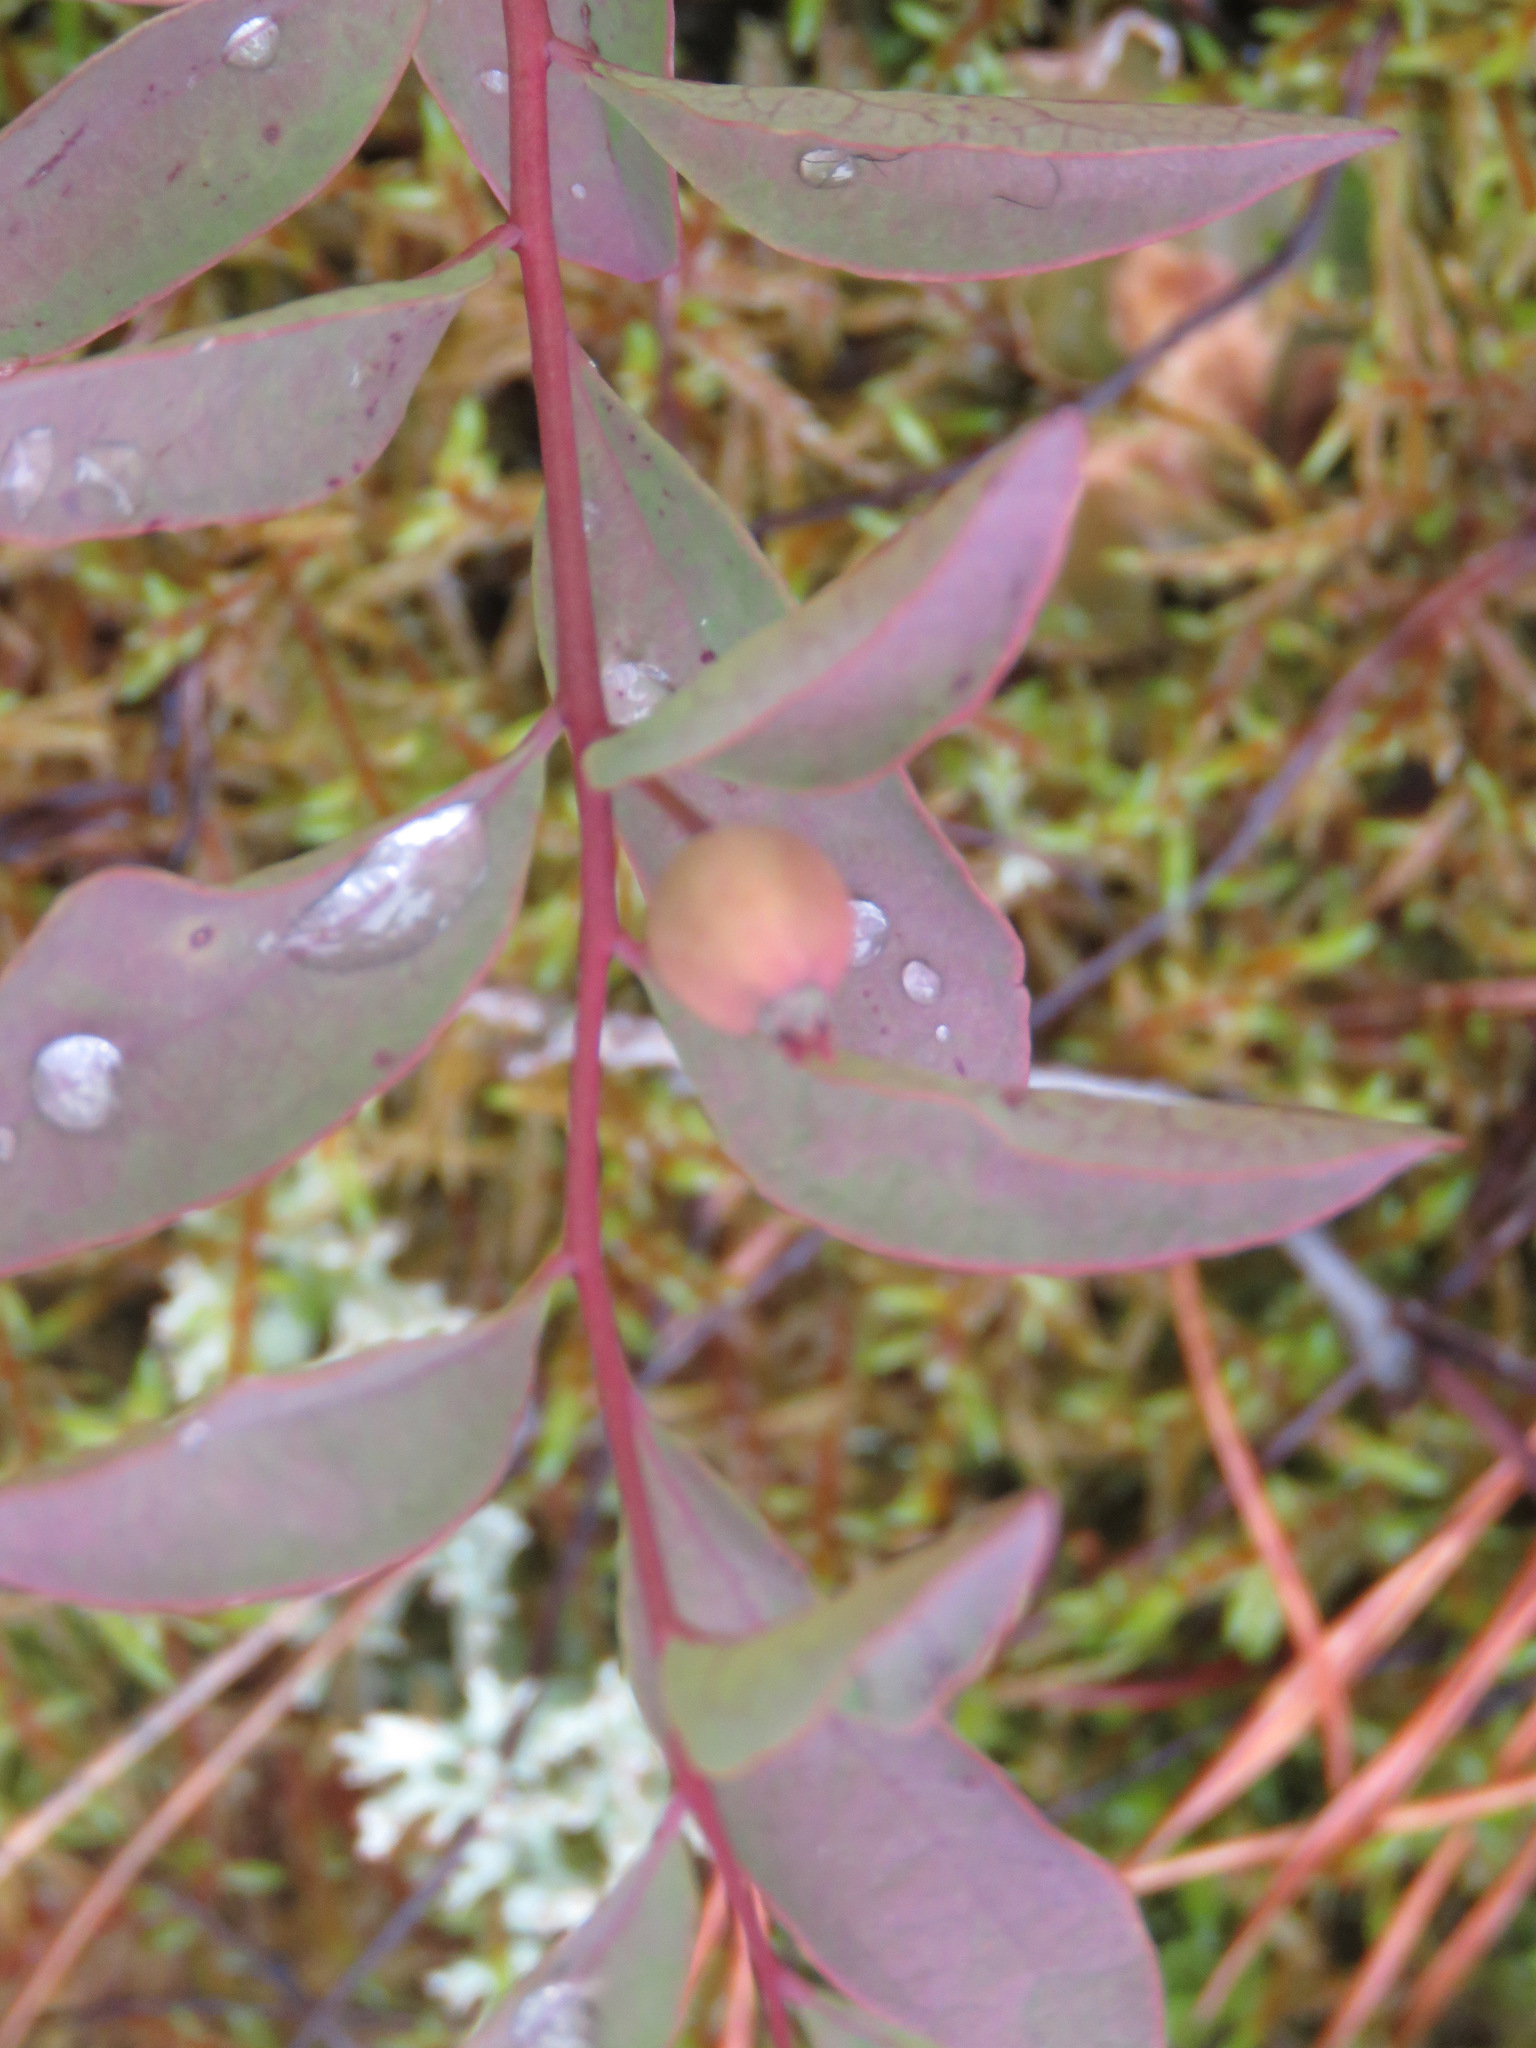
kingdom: Plantae
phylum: Tracheophyta
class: Magnoliopsida
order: Santalales
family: Comandraceae
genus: Geocaulon
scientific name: Geocaulon lividum
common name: Earthberry
